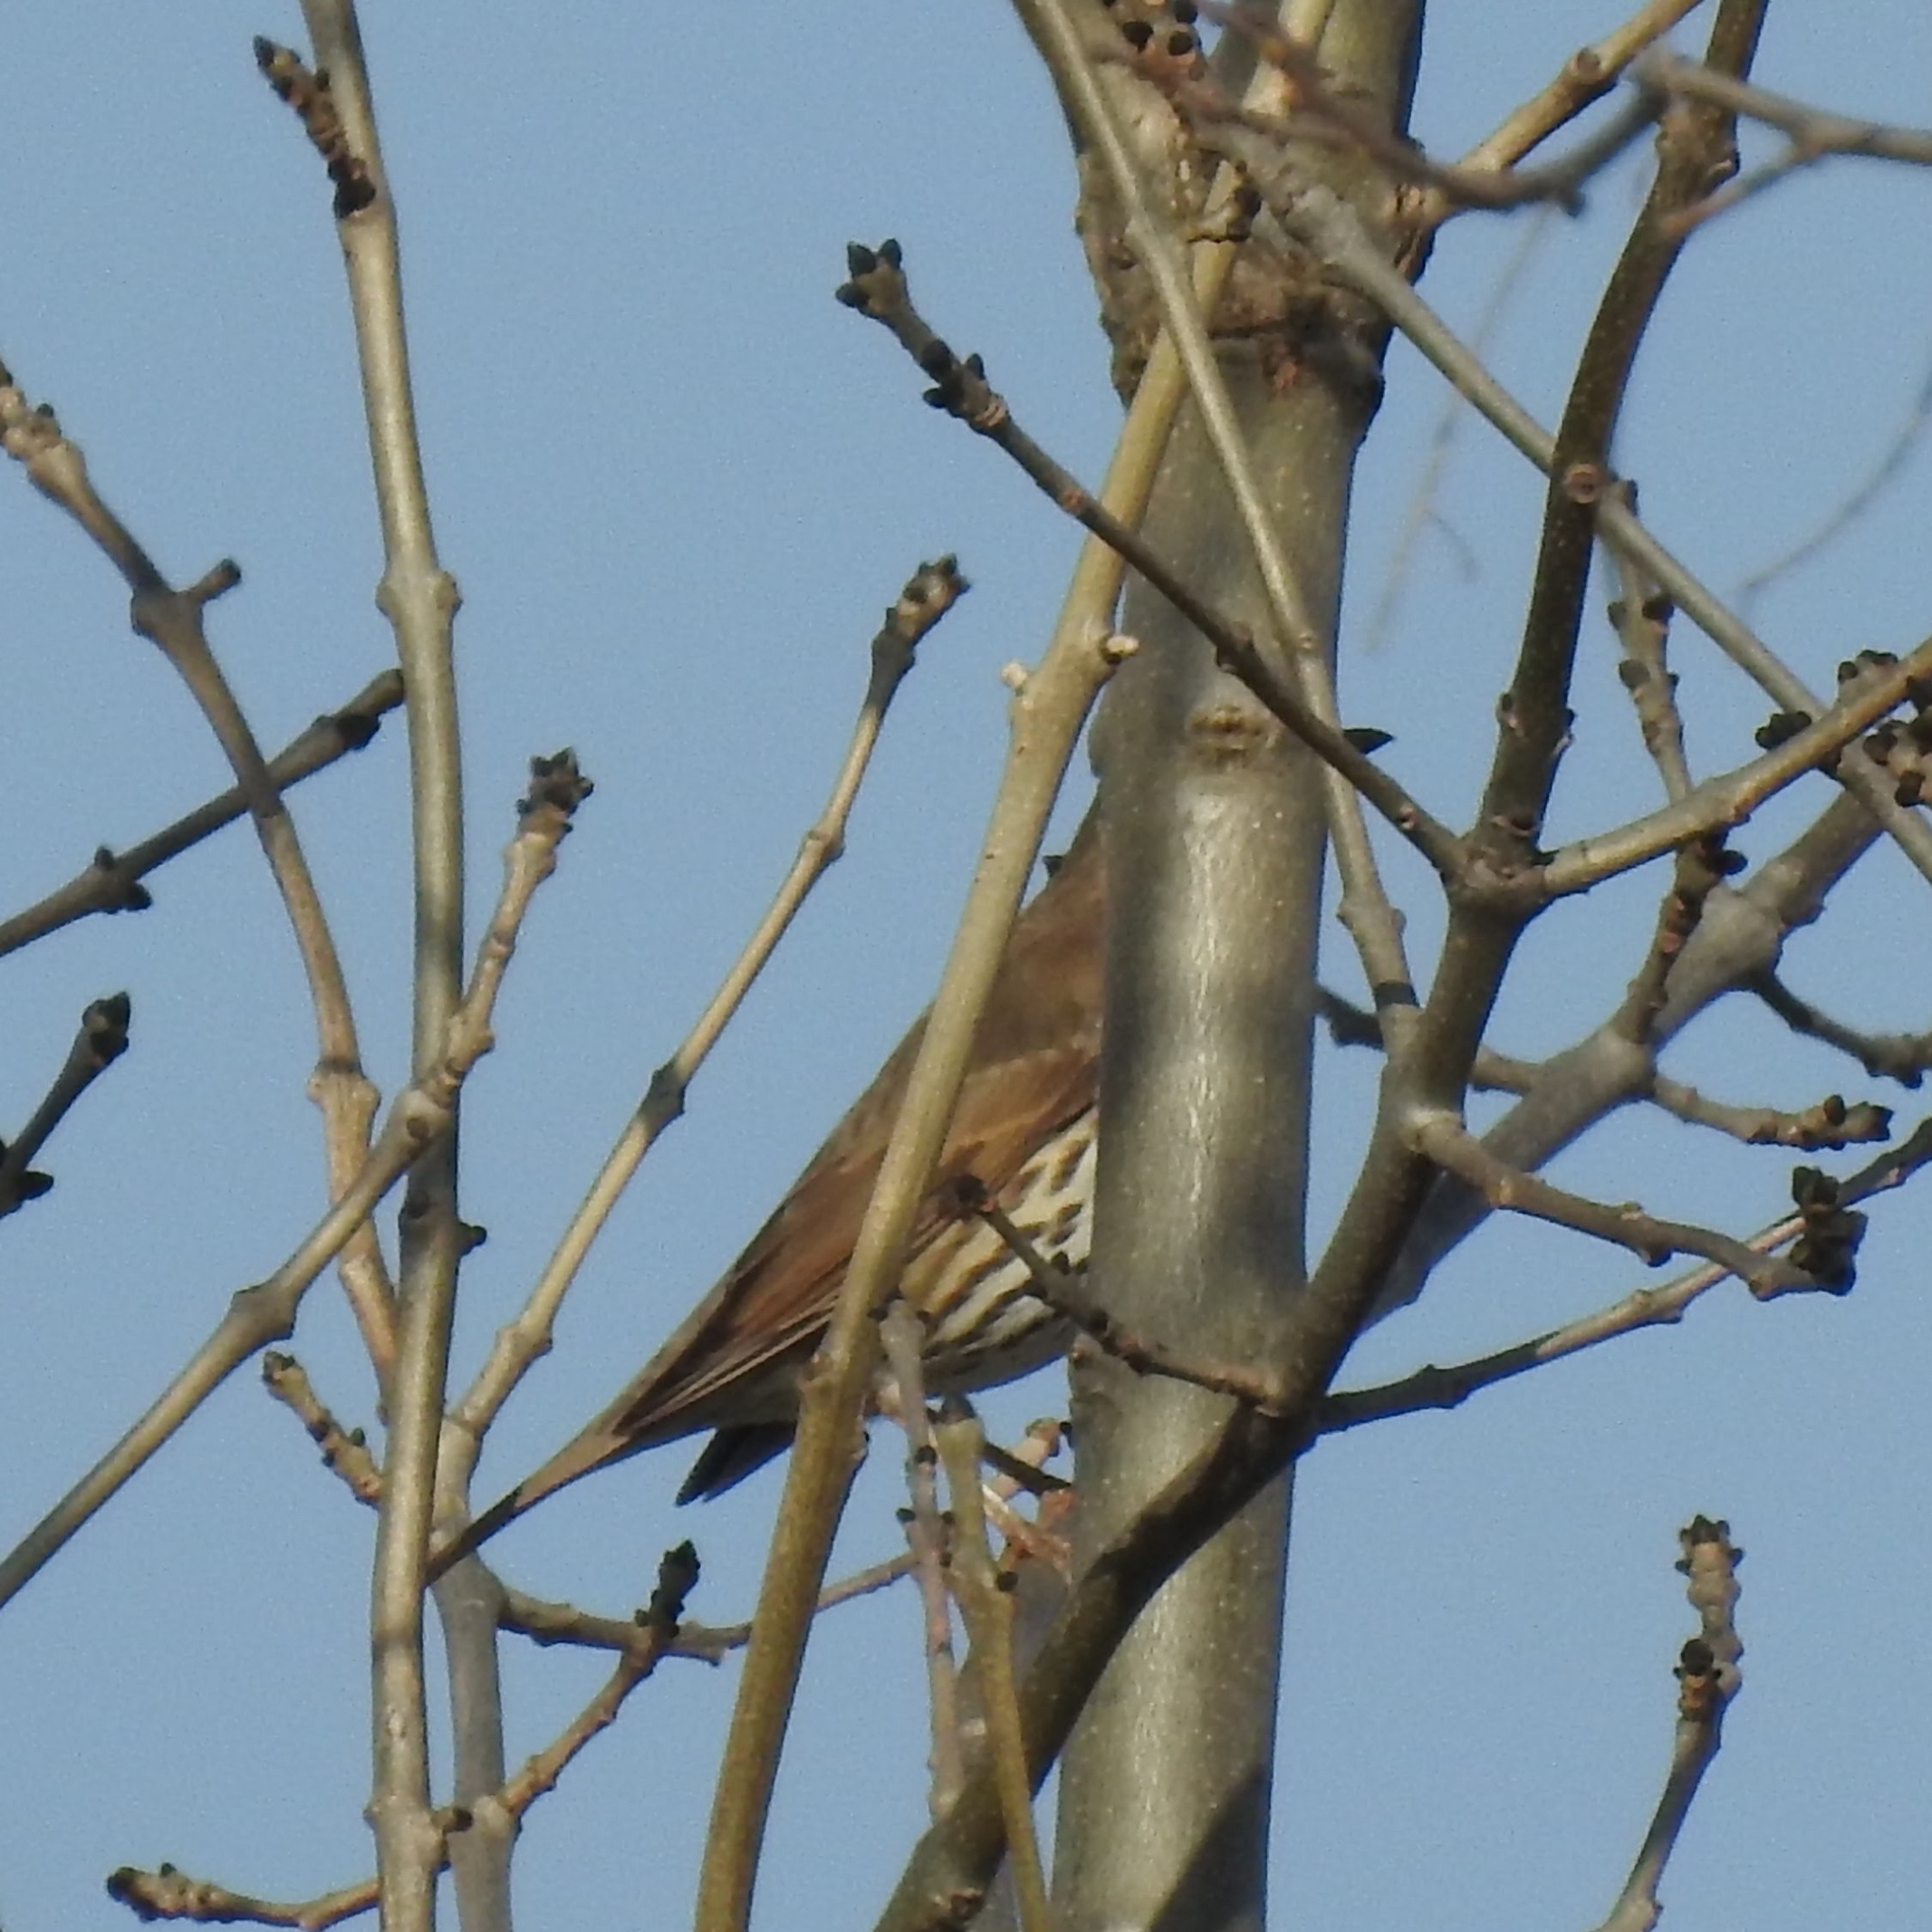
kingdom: Animalia
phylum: Chordata
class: Aves
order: Passeriformes
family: Turdidae
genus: Turdus
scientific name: Turdus philomelos
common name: Song thrush
